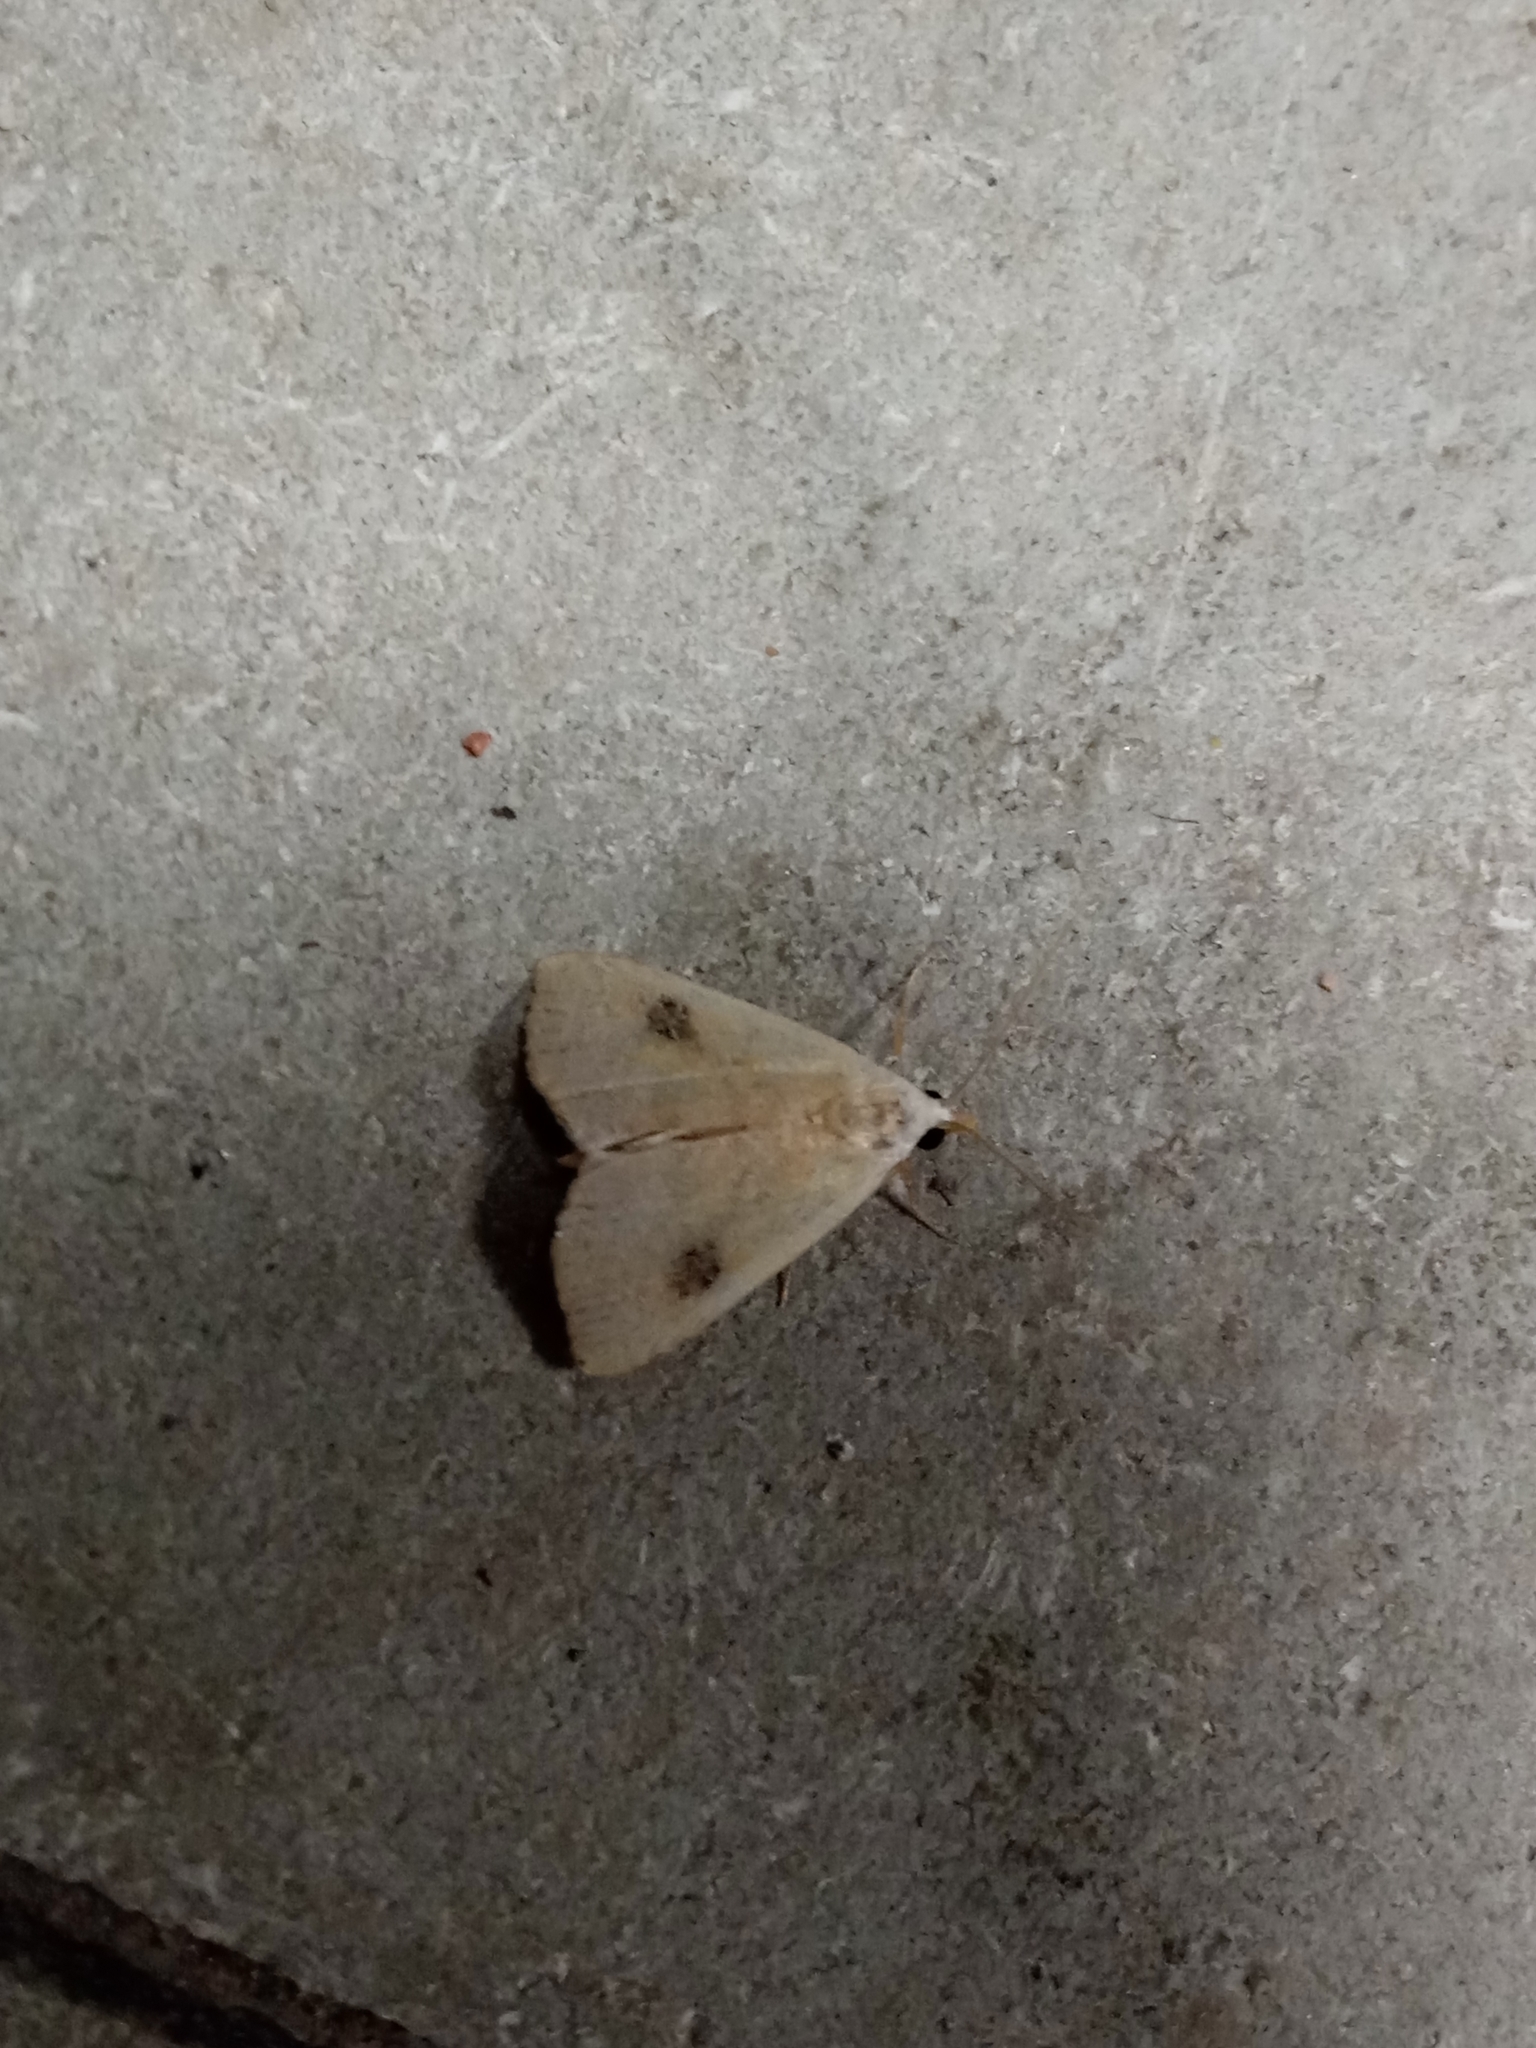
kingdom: Animalia
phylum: Arthropoda
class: Insecta
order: Lepidoptera
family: Erebidae
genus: Rivula
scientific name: Rivula sericealis
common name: Straw dot
